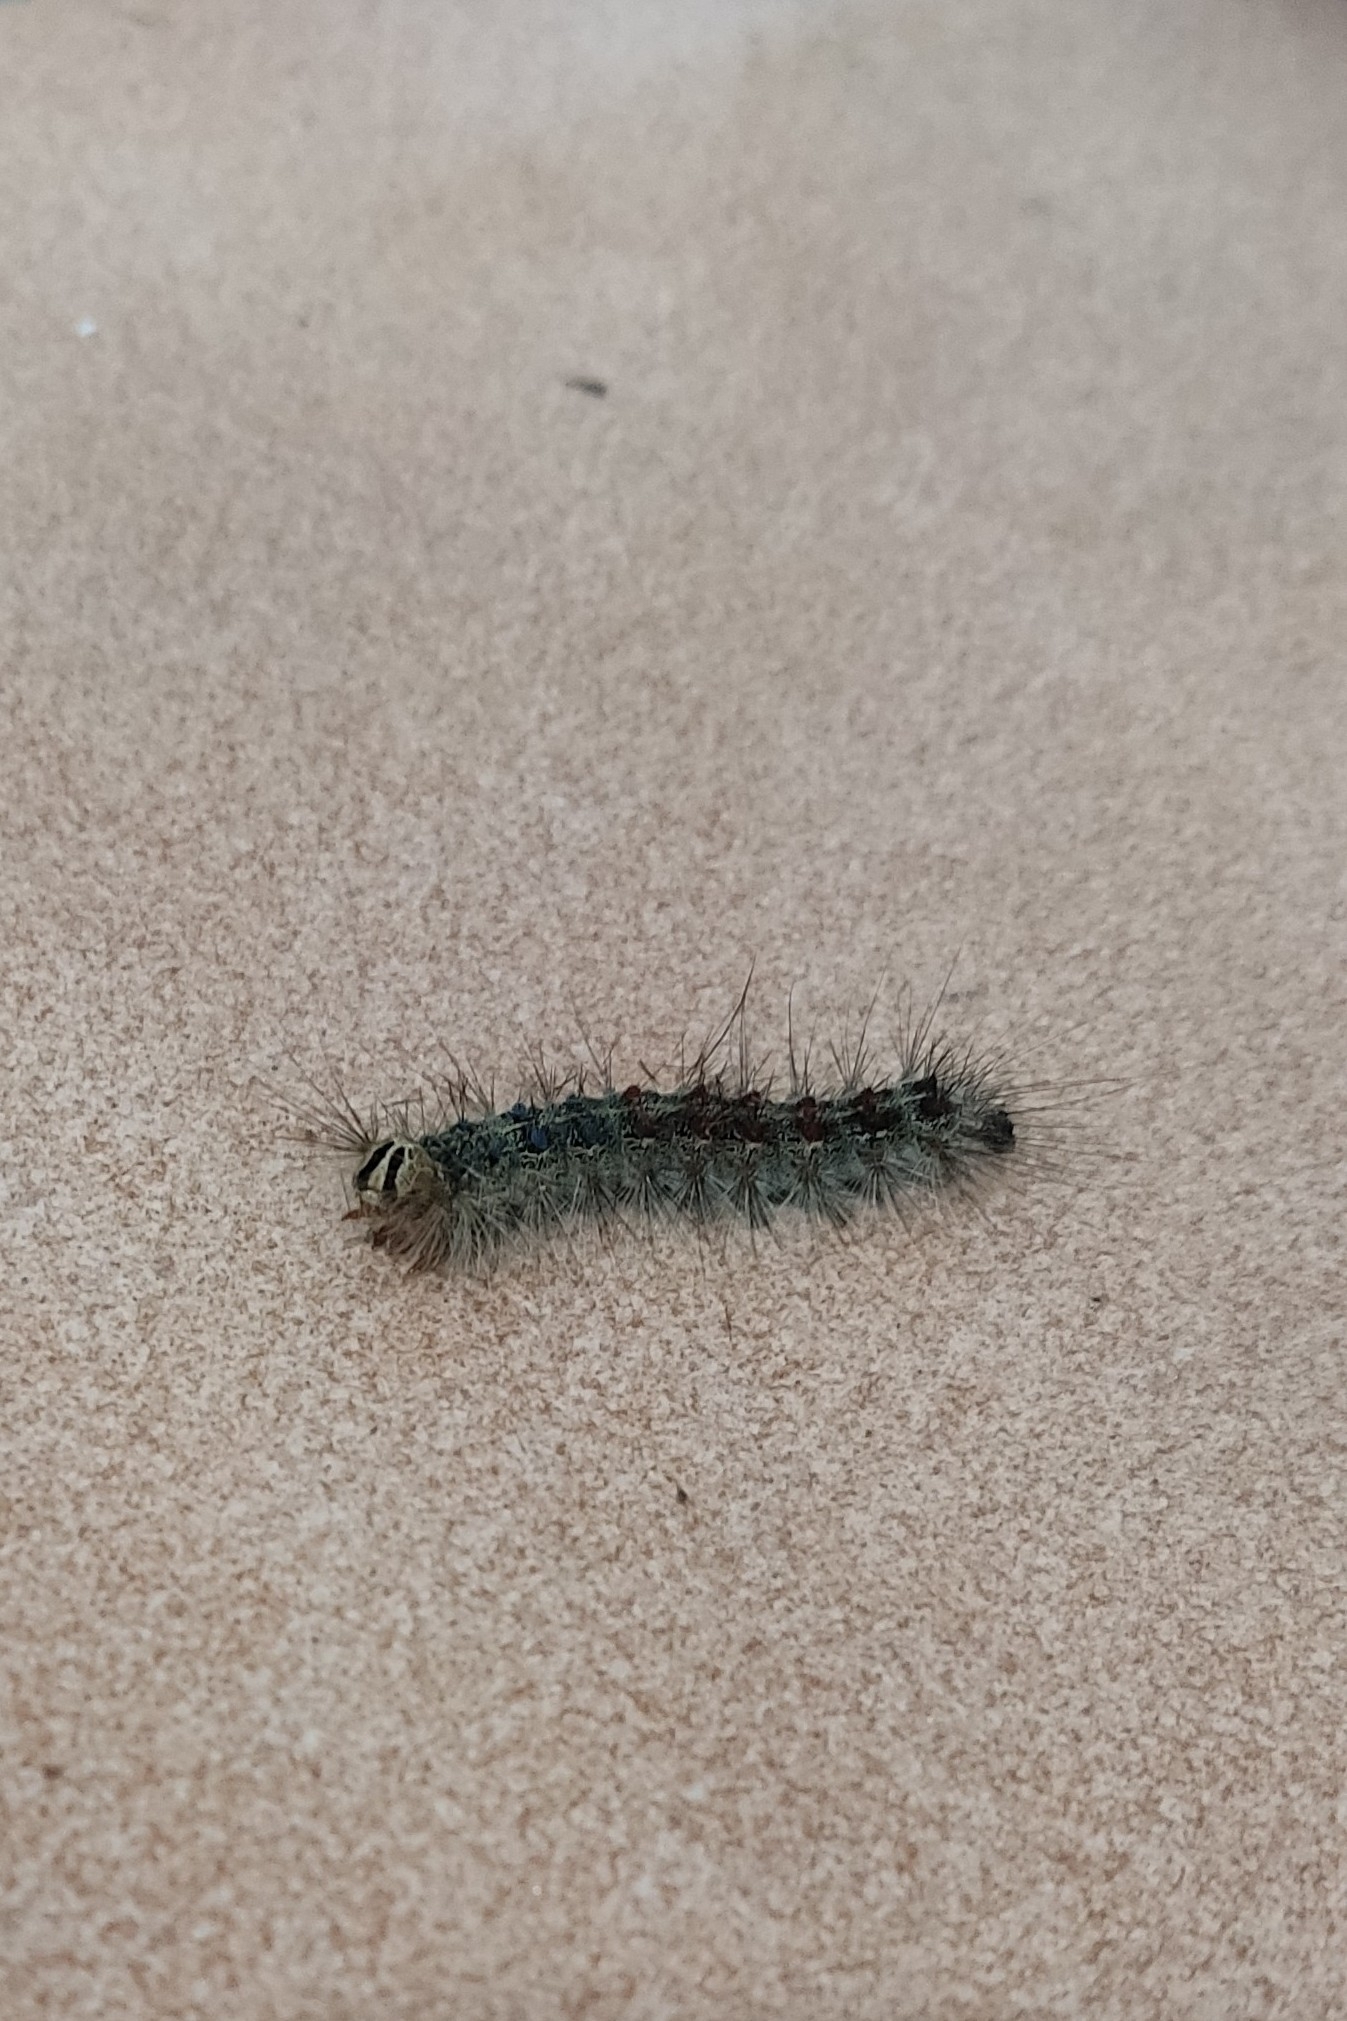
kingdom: Animalia
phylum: Arthropoda
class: Insecta
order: Lepidoptera
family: Erebidae
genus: Lymantria
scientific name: Lymantria dispar
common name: Gypsy moth
